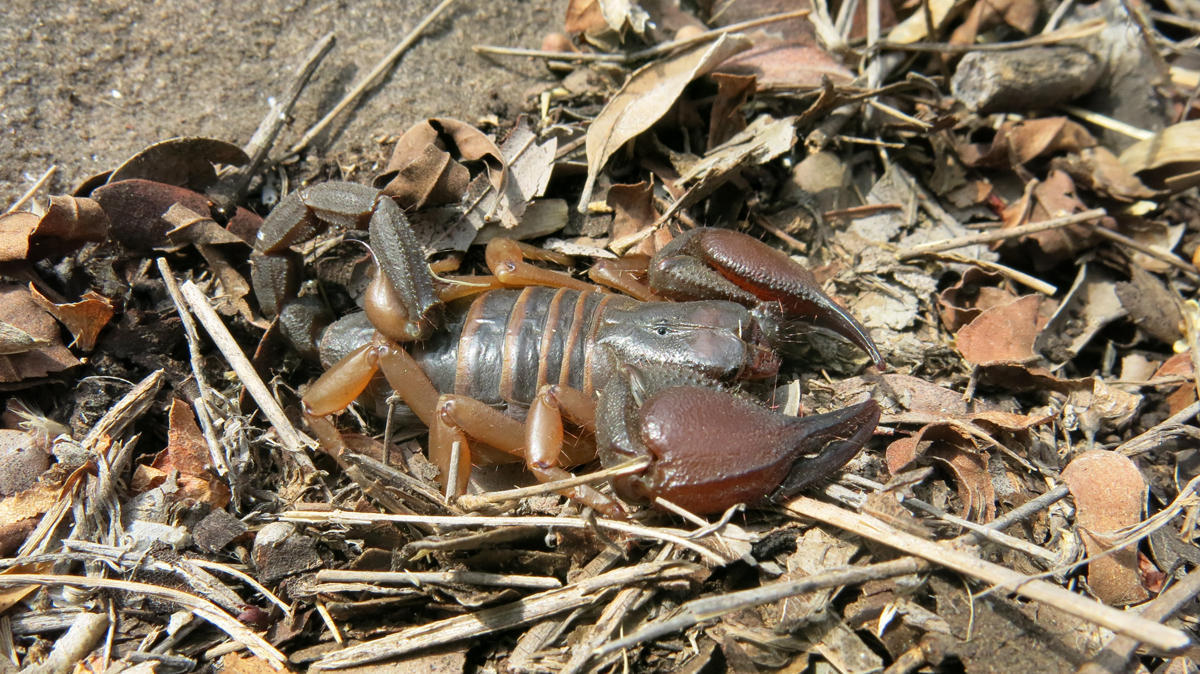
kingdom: Animalia
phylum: Arthropoda
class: Arachnida
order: Scorpiones
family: Scorpionidae
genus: Opistophthalmus
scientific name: Opistophthalmus lawrencei
